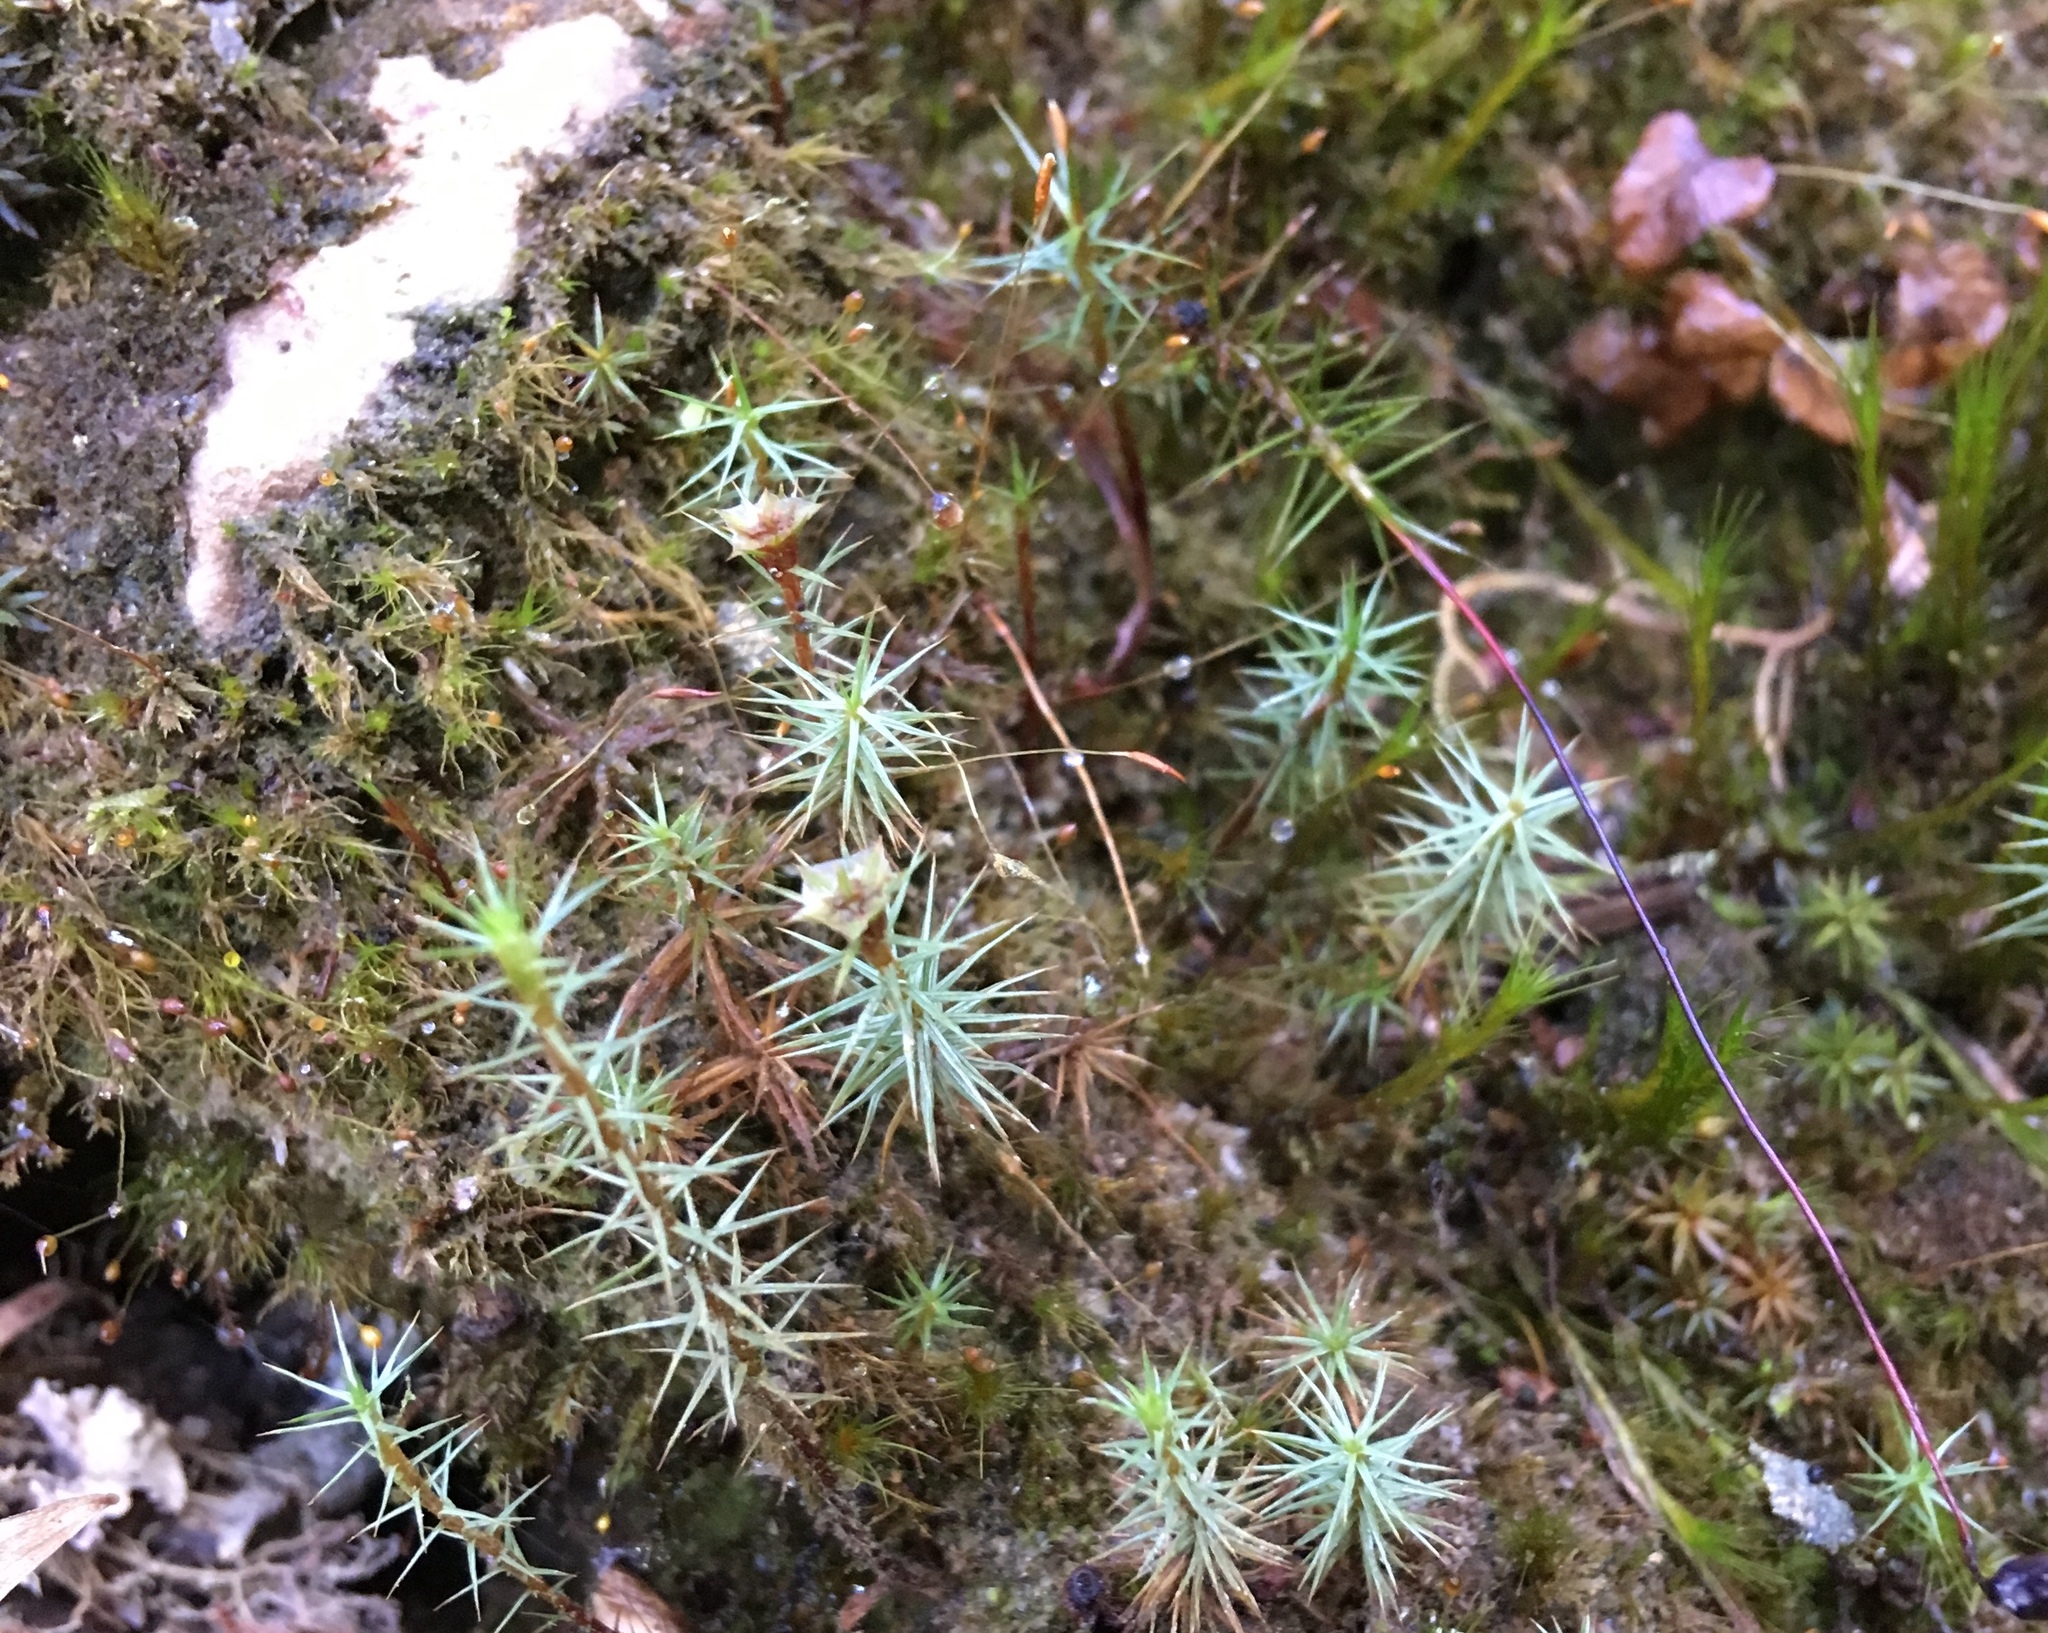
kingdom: Plantae
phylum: Bryophyta
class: Polytrichopsida
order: Polytrichales
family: Polytrichaceae
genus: Polytrichum
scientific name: Polytrichum juniperinum
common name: Juniper haircap moss
